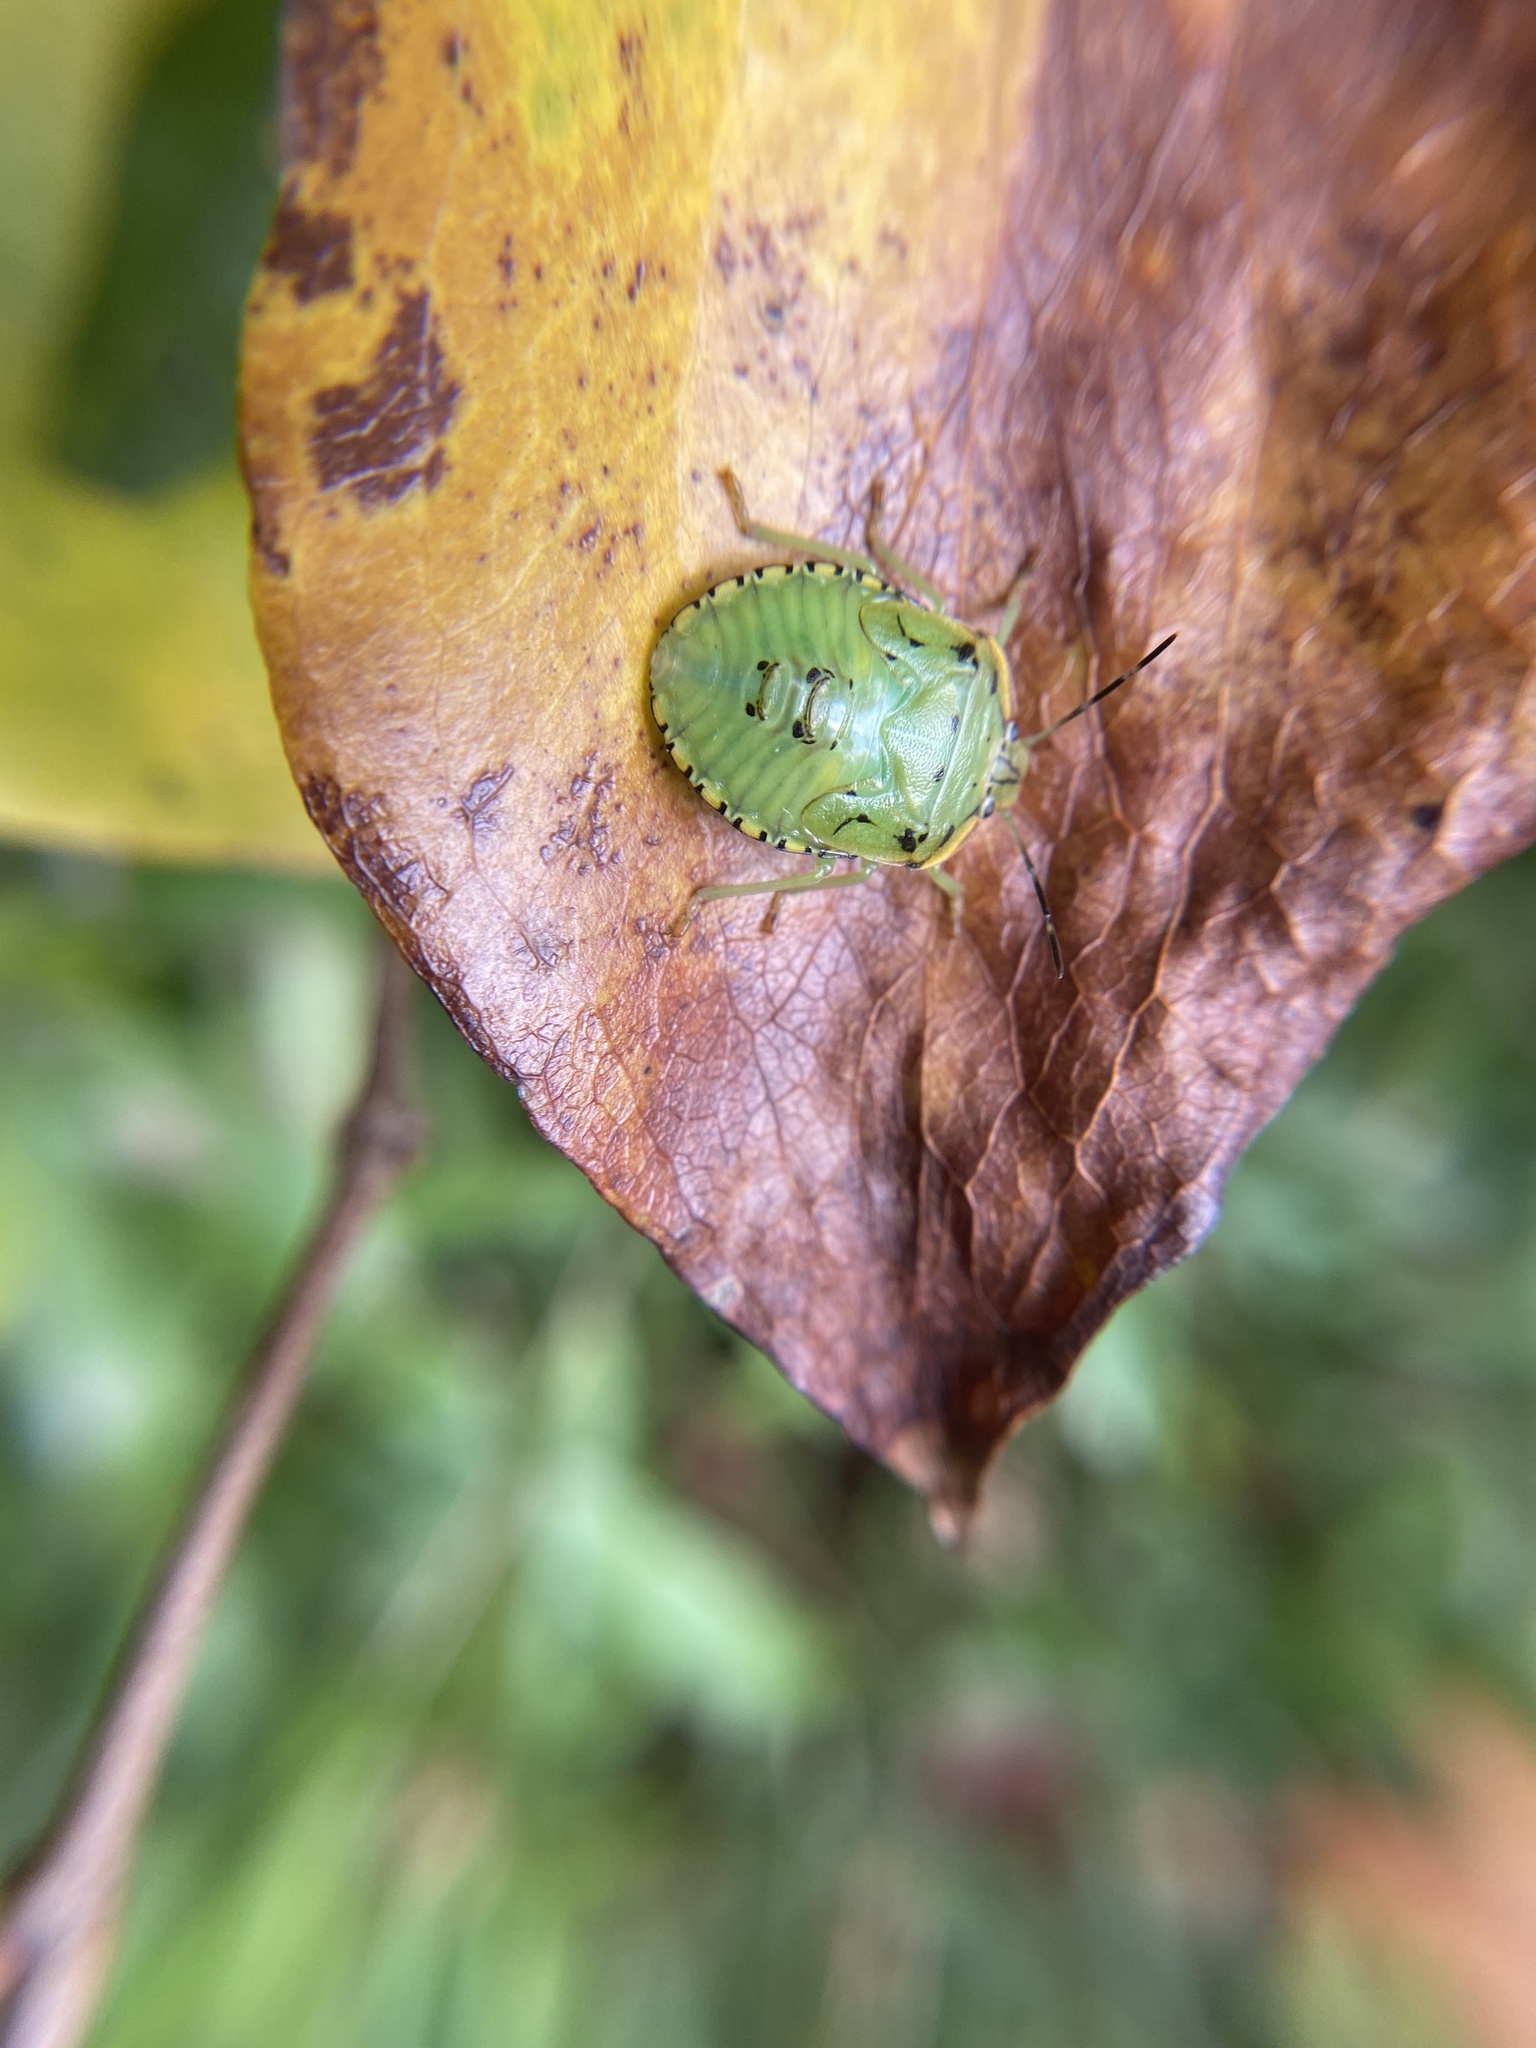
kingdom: Animalia
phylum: Arthropoda
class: Insecta
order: Hemiptera
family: Pentatomidae
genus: Chinavia
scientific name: Chinavia hilaris
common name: Green stink bug
